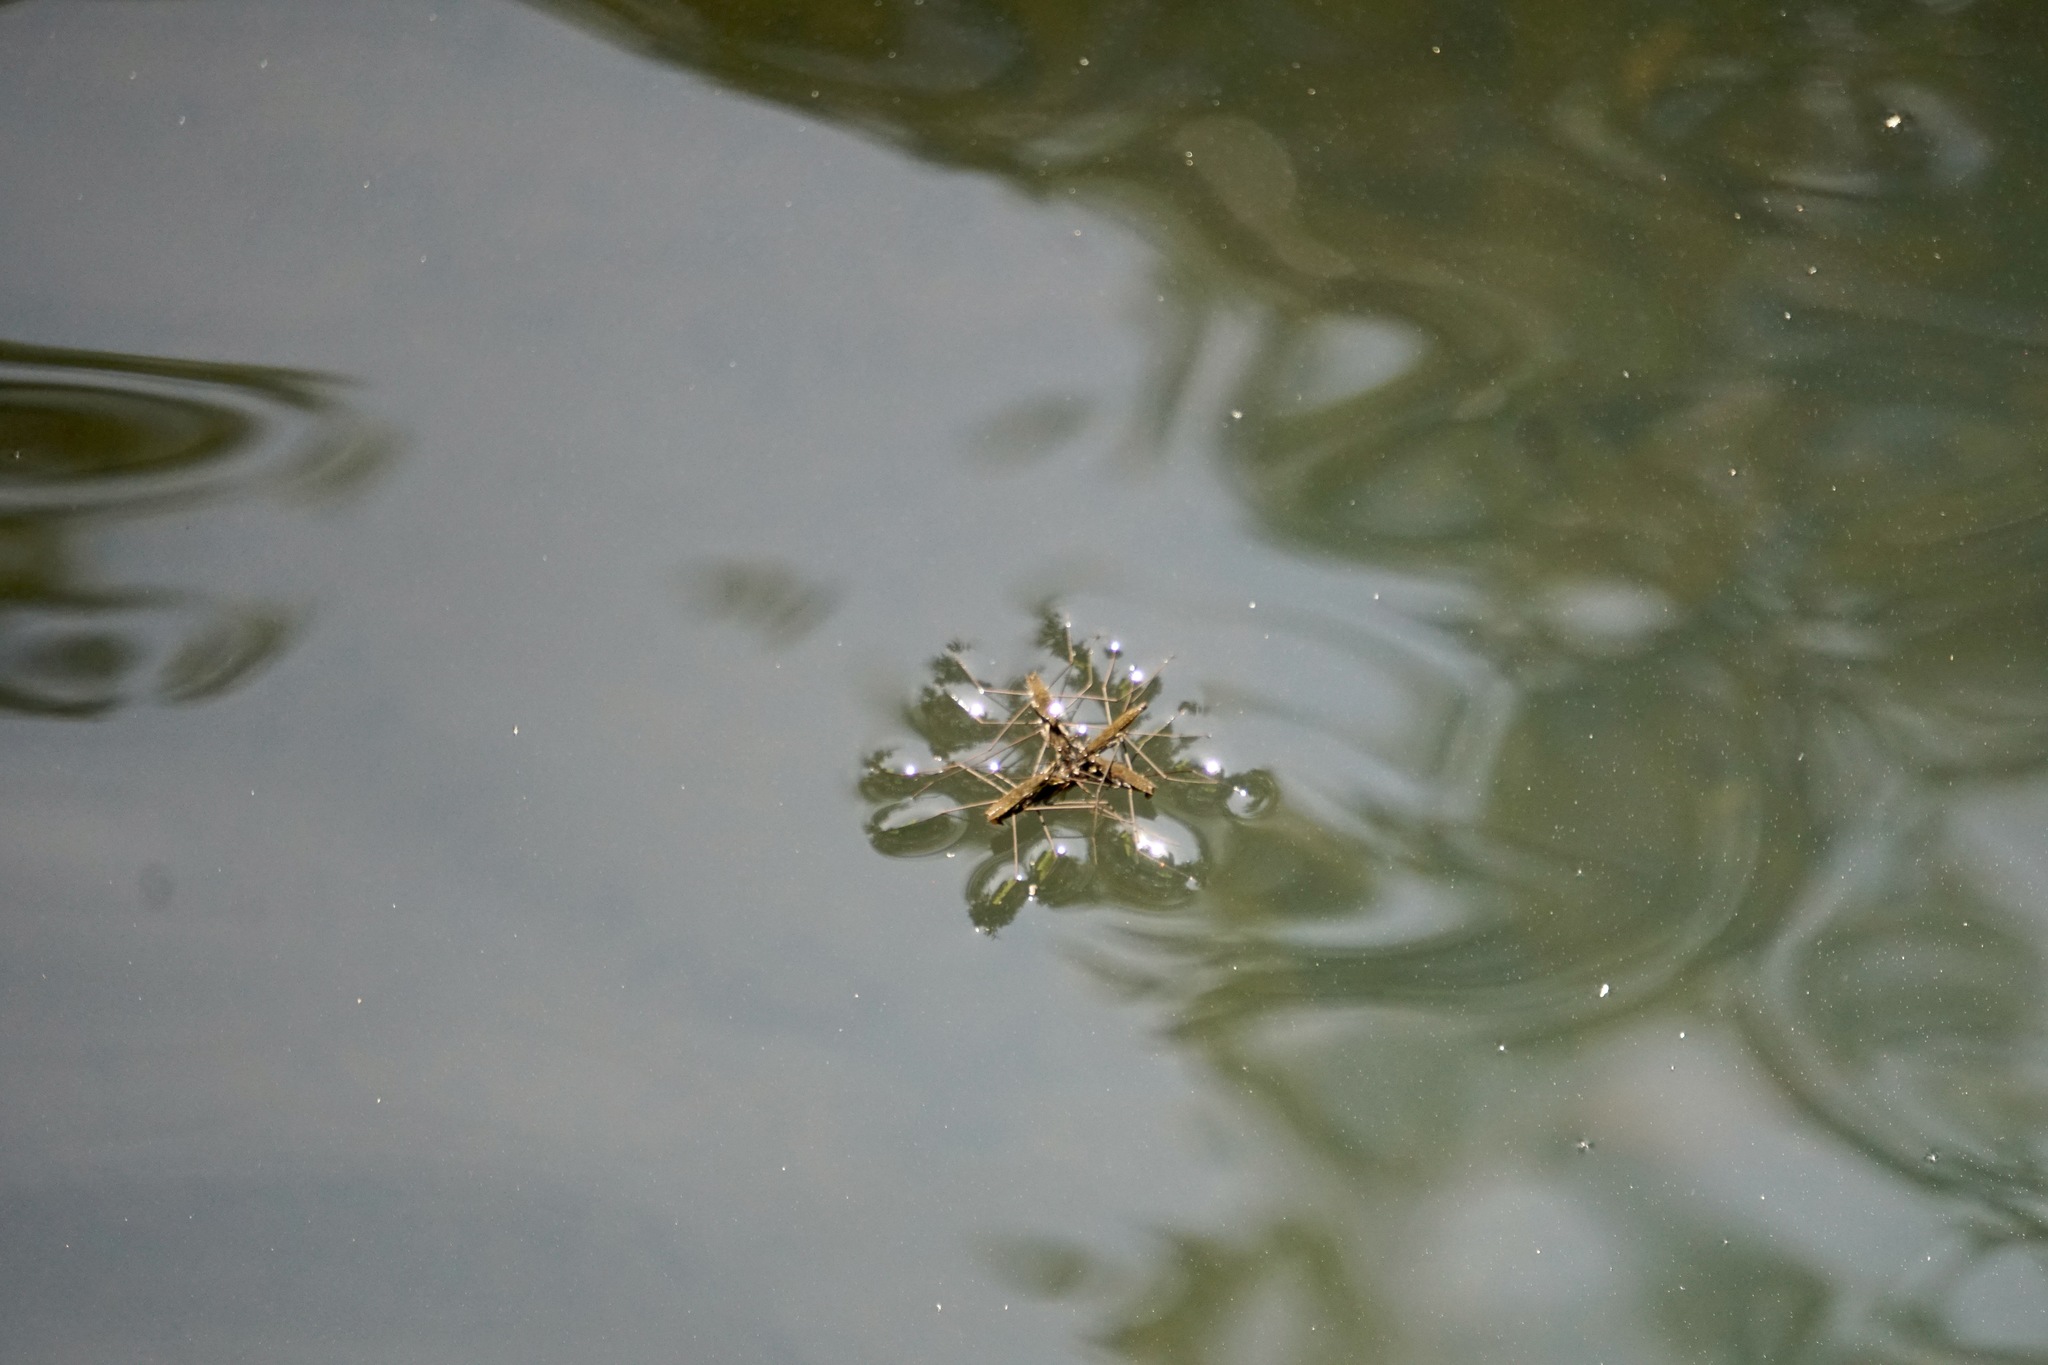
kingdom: Animalia
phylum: Arthropoda
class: Insecta
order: Hemiptera
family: Gerridae
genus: Aquarius
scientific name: Aquarius remigis
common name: Common water strider
